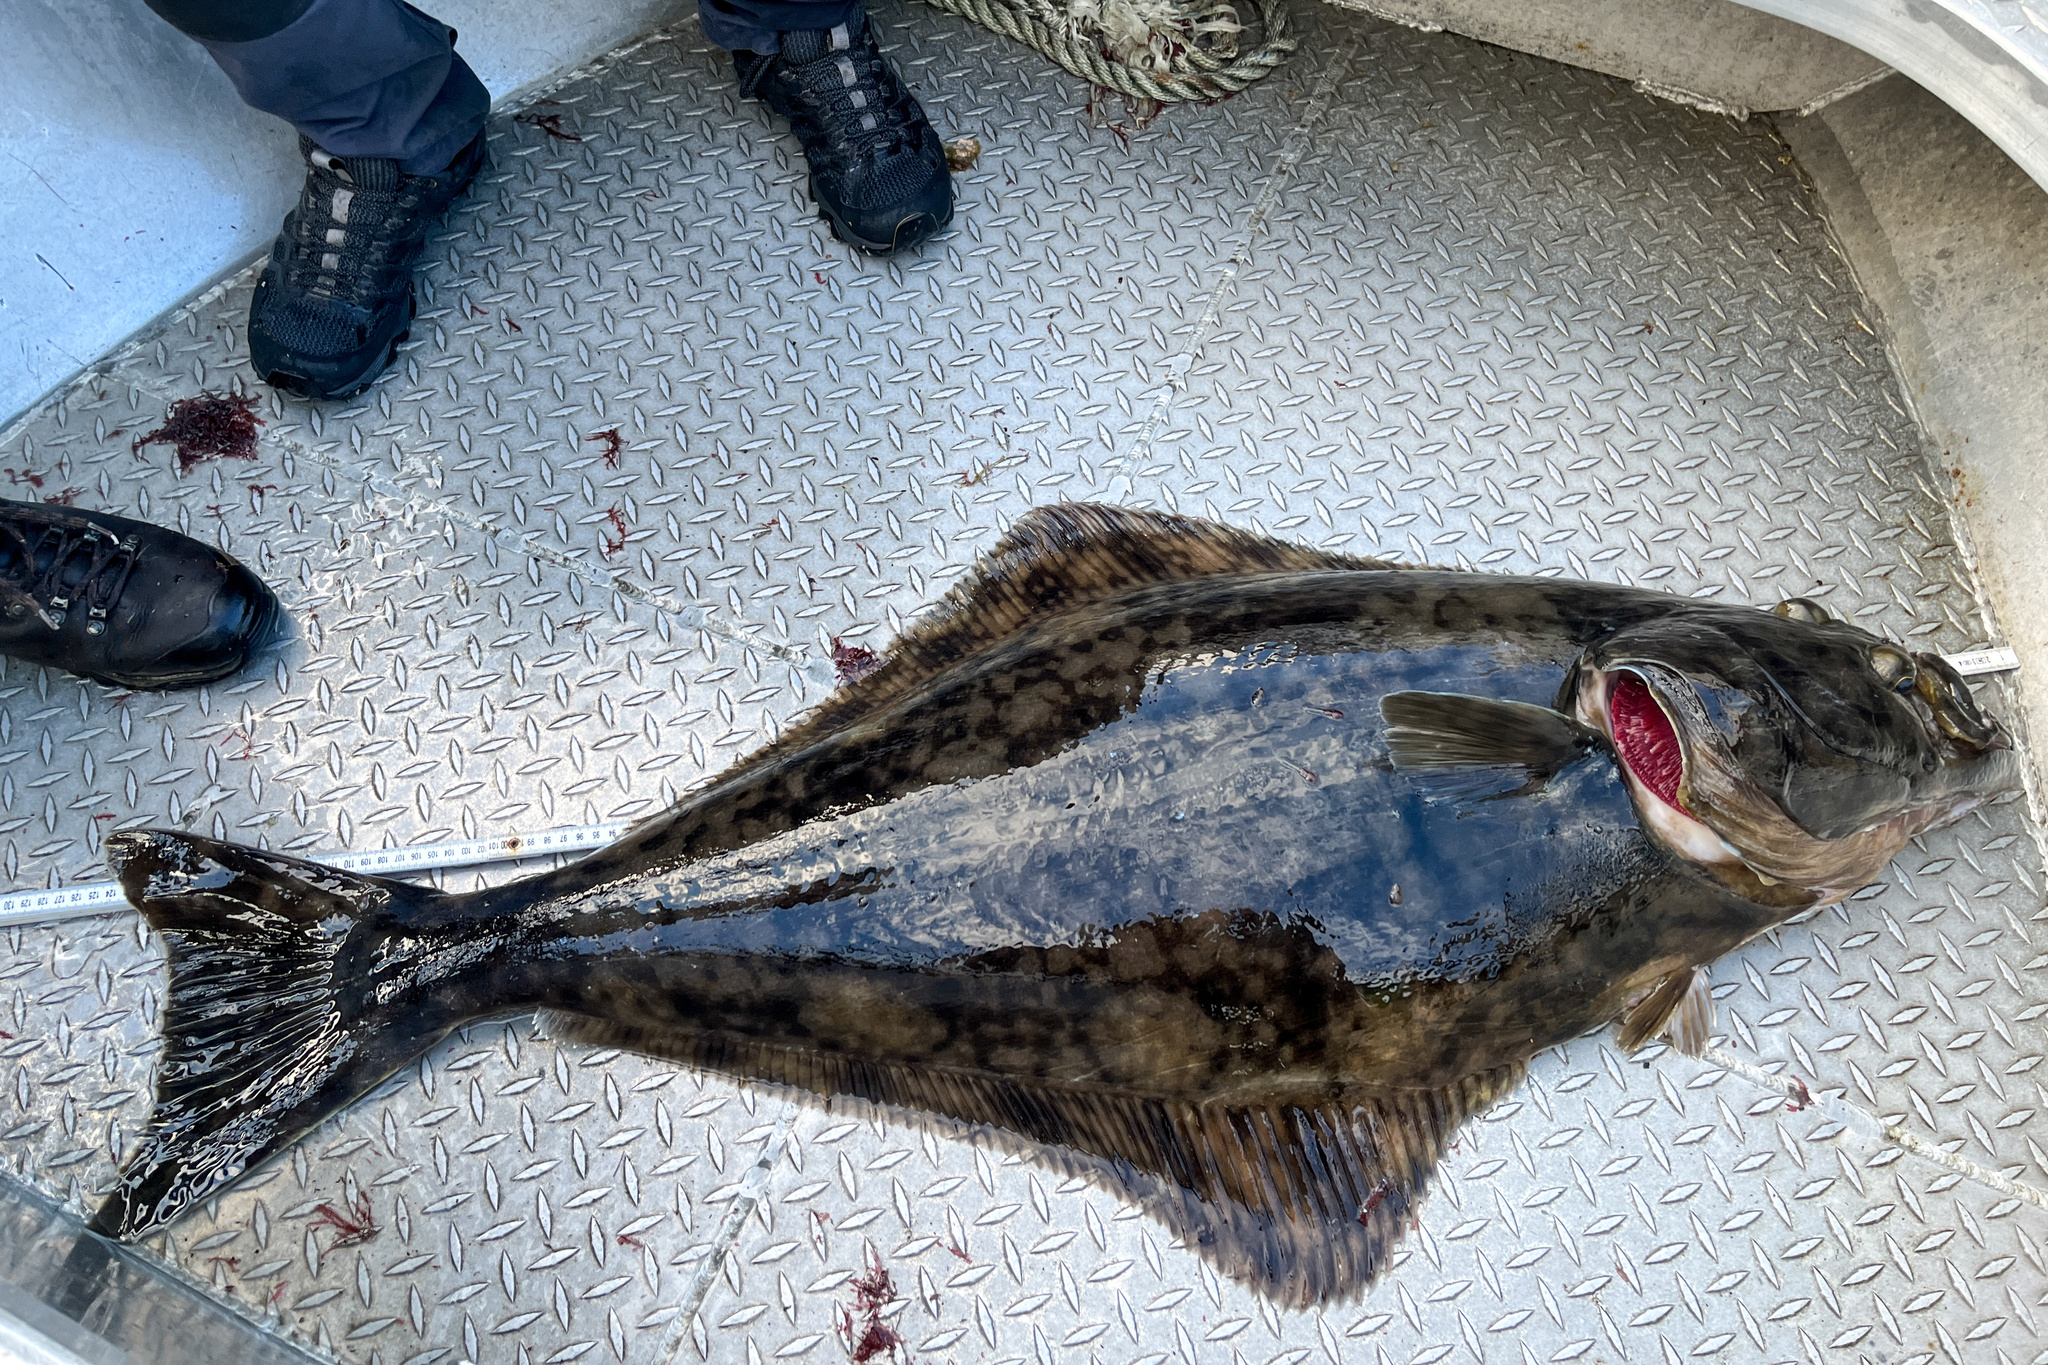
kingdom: Animalia
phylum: Chordata
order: Pleuronectiformes
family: Pleuronectidae
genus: Hippoglossus
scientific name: Hippoglossus hippoglossus
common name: Atlantic halibut
